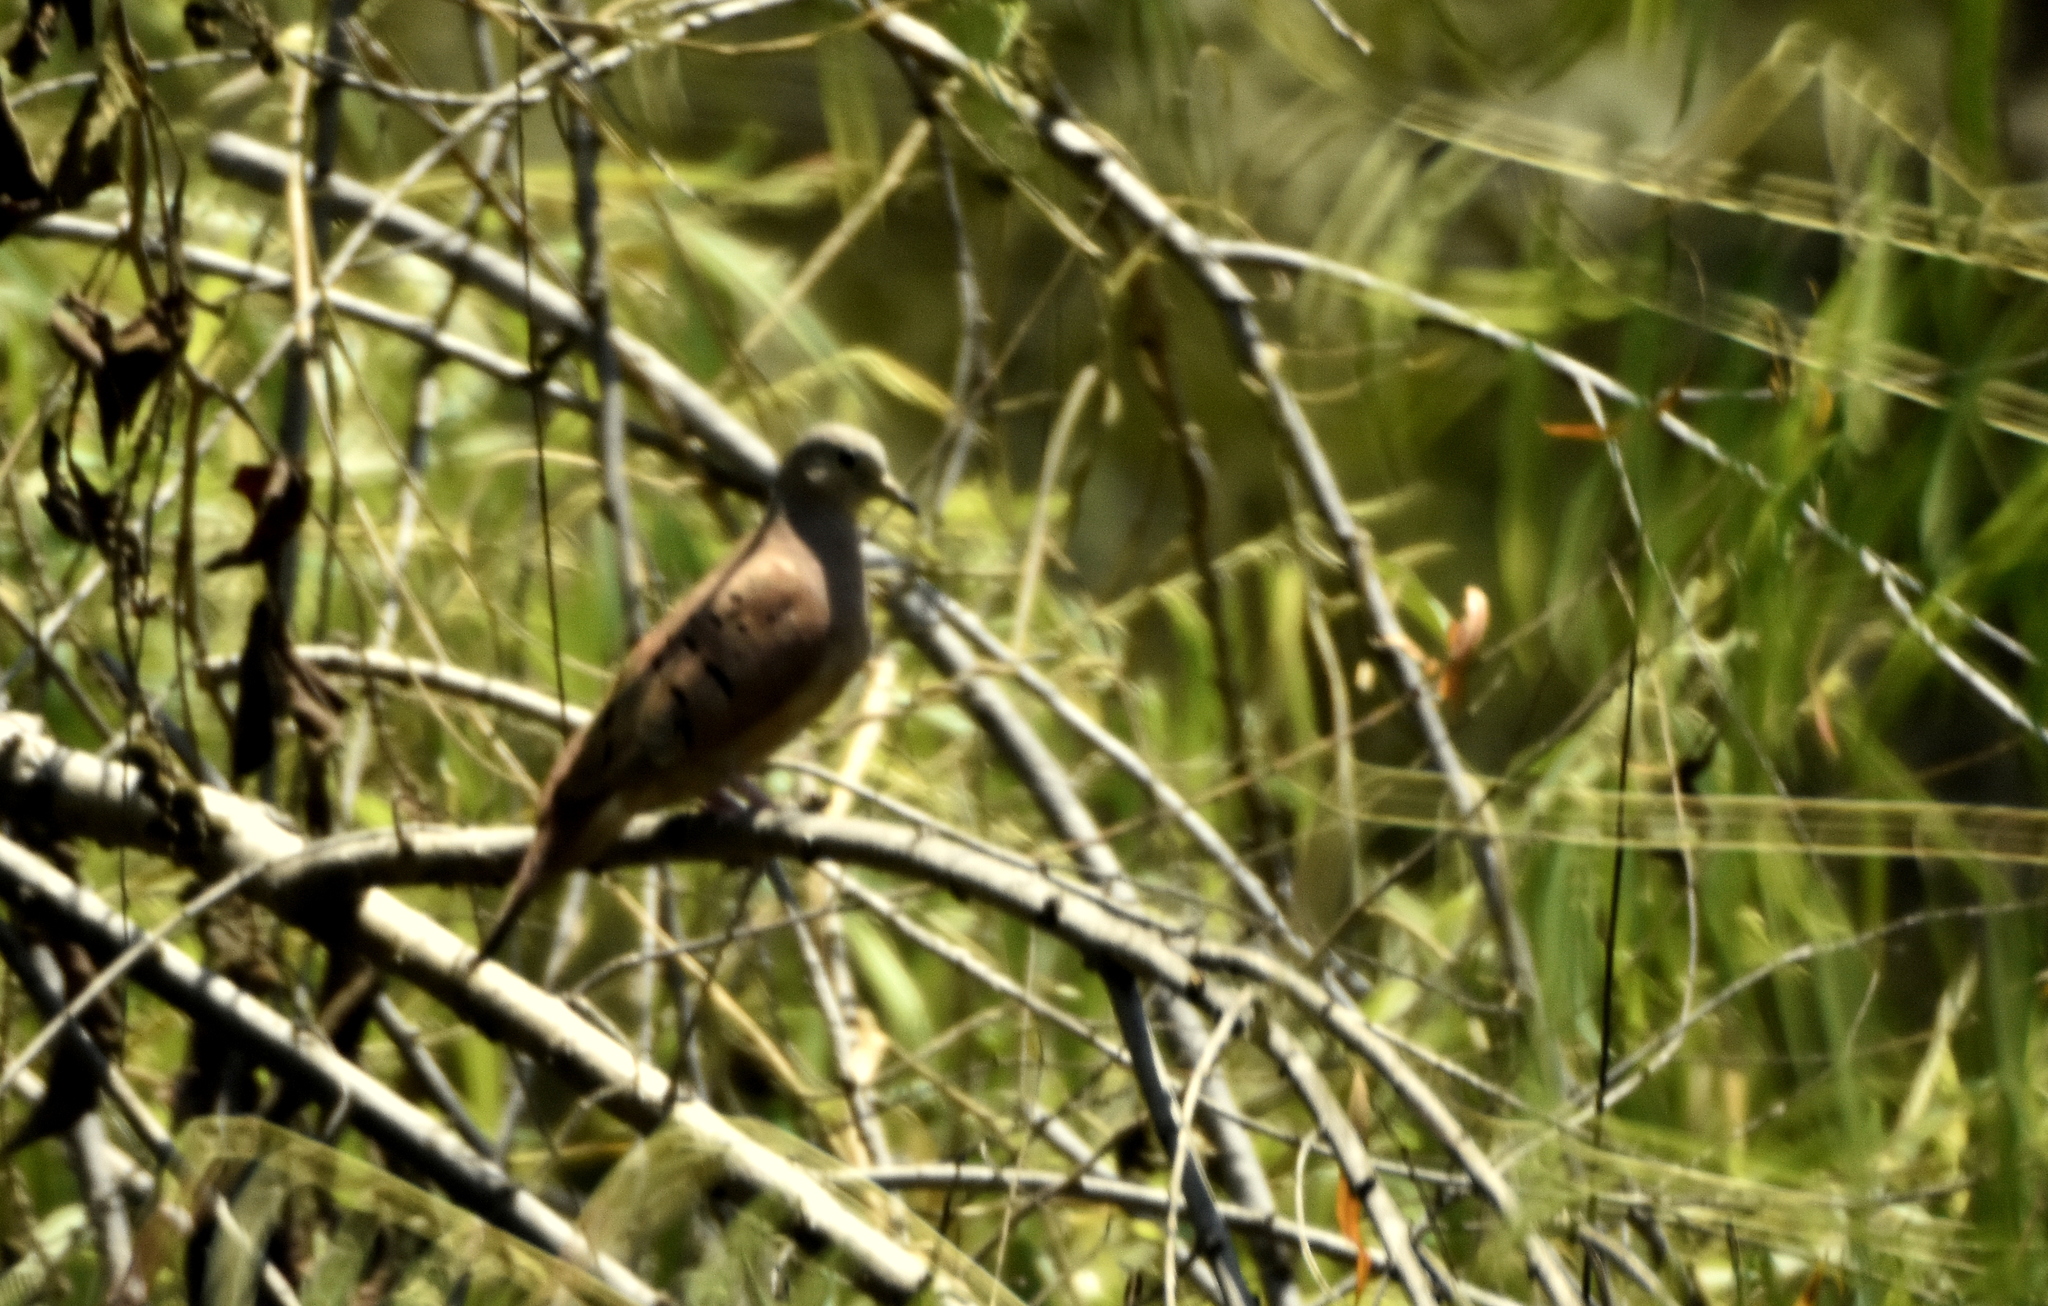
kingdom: Animalia
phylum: Chordata
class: Aves
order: Columbiformes
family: Columbidae
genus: Columbina
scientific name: Columbina talpacoti
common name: Ruddy ground dove
